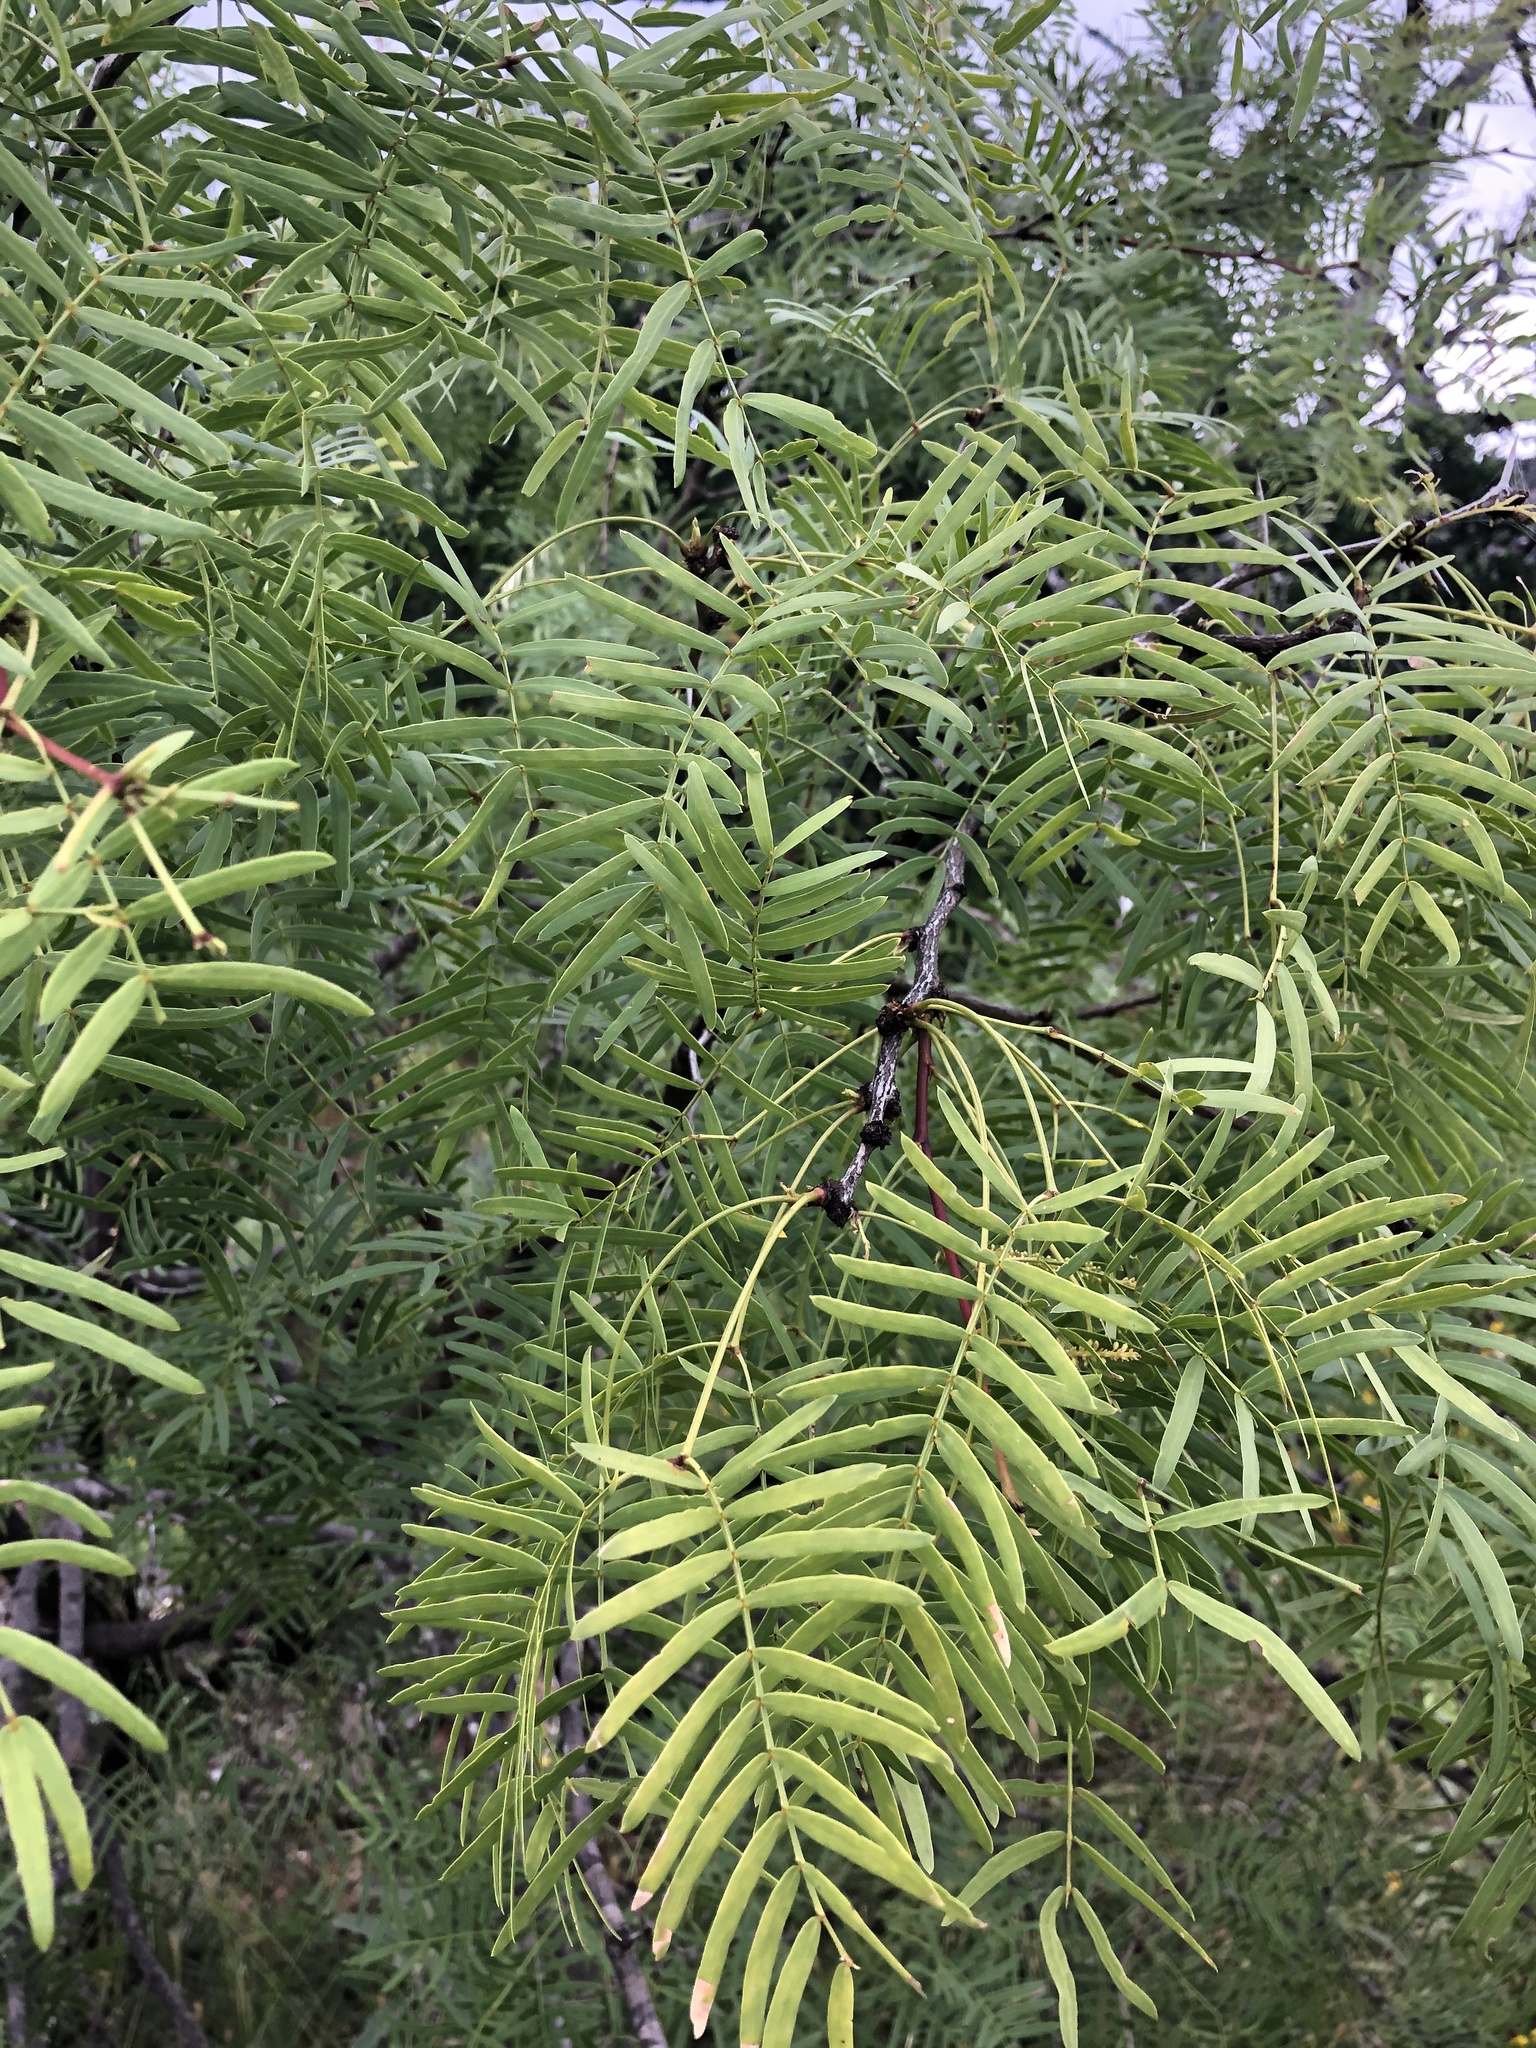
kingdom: Plantae
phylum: Tracheophyta
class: Magnoliopsida
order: Fabales
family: Fabaceae
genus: Prosopis
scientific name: Prosopis glandulosa
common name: Honey mesquite
